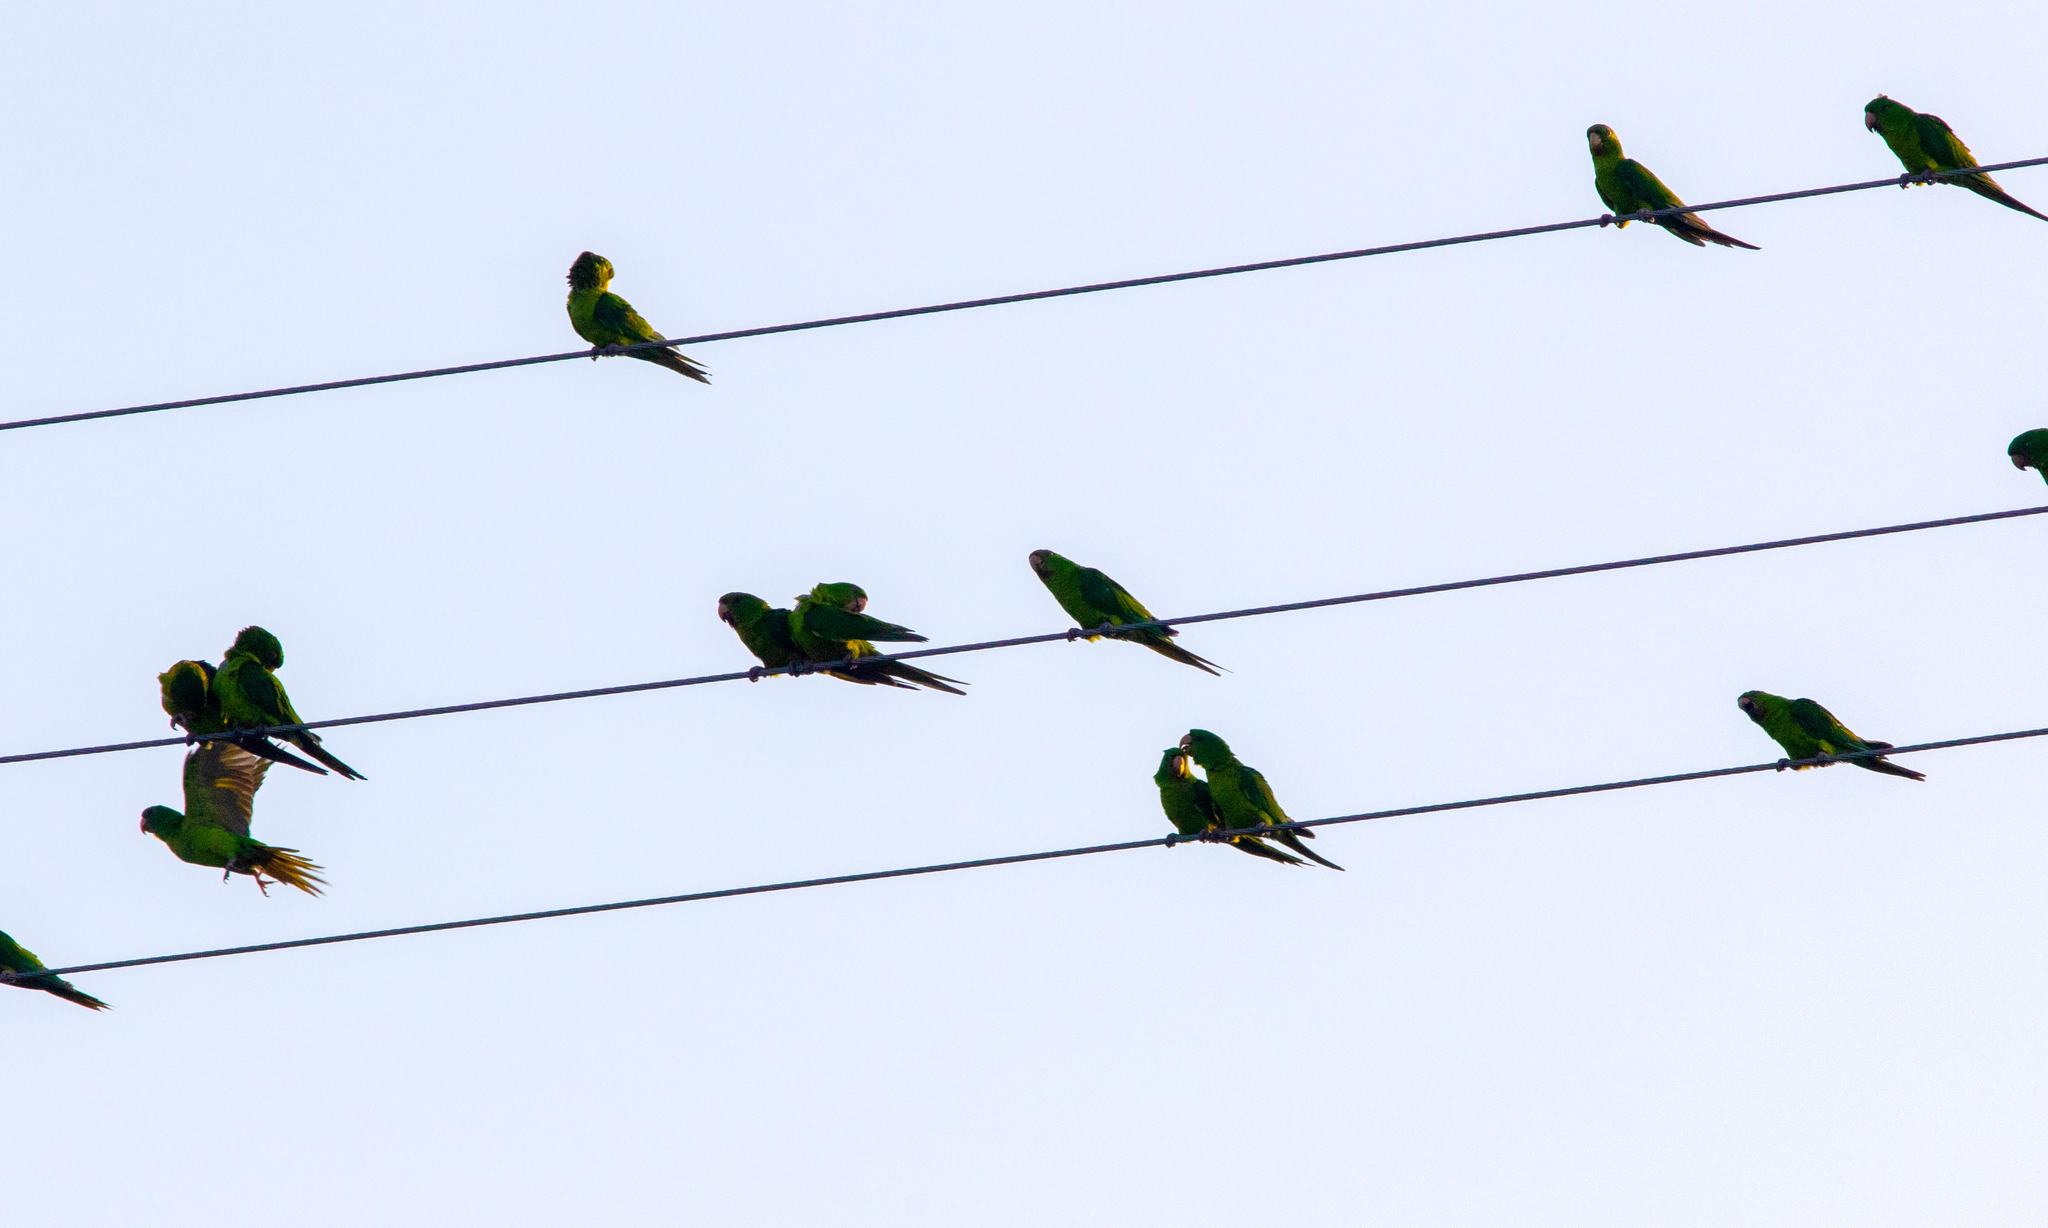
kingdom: Animalia
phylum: Chordata
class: Aves
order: Psittaciformes
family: Psittacidae
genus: Aratinga
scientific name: Aratinga holochlora
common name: Green parakeet
